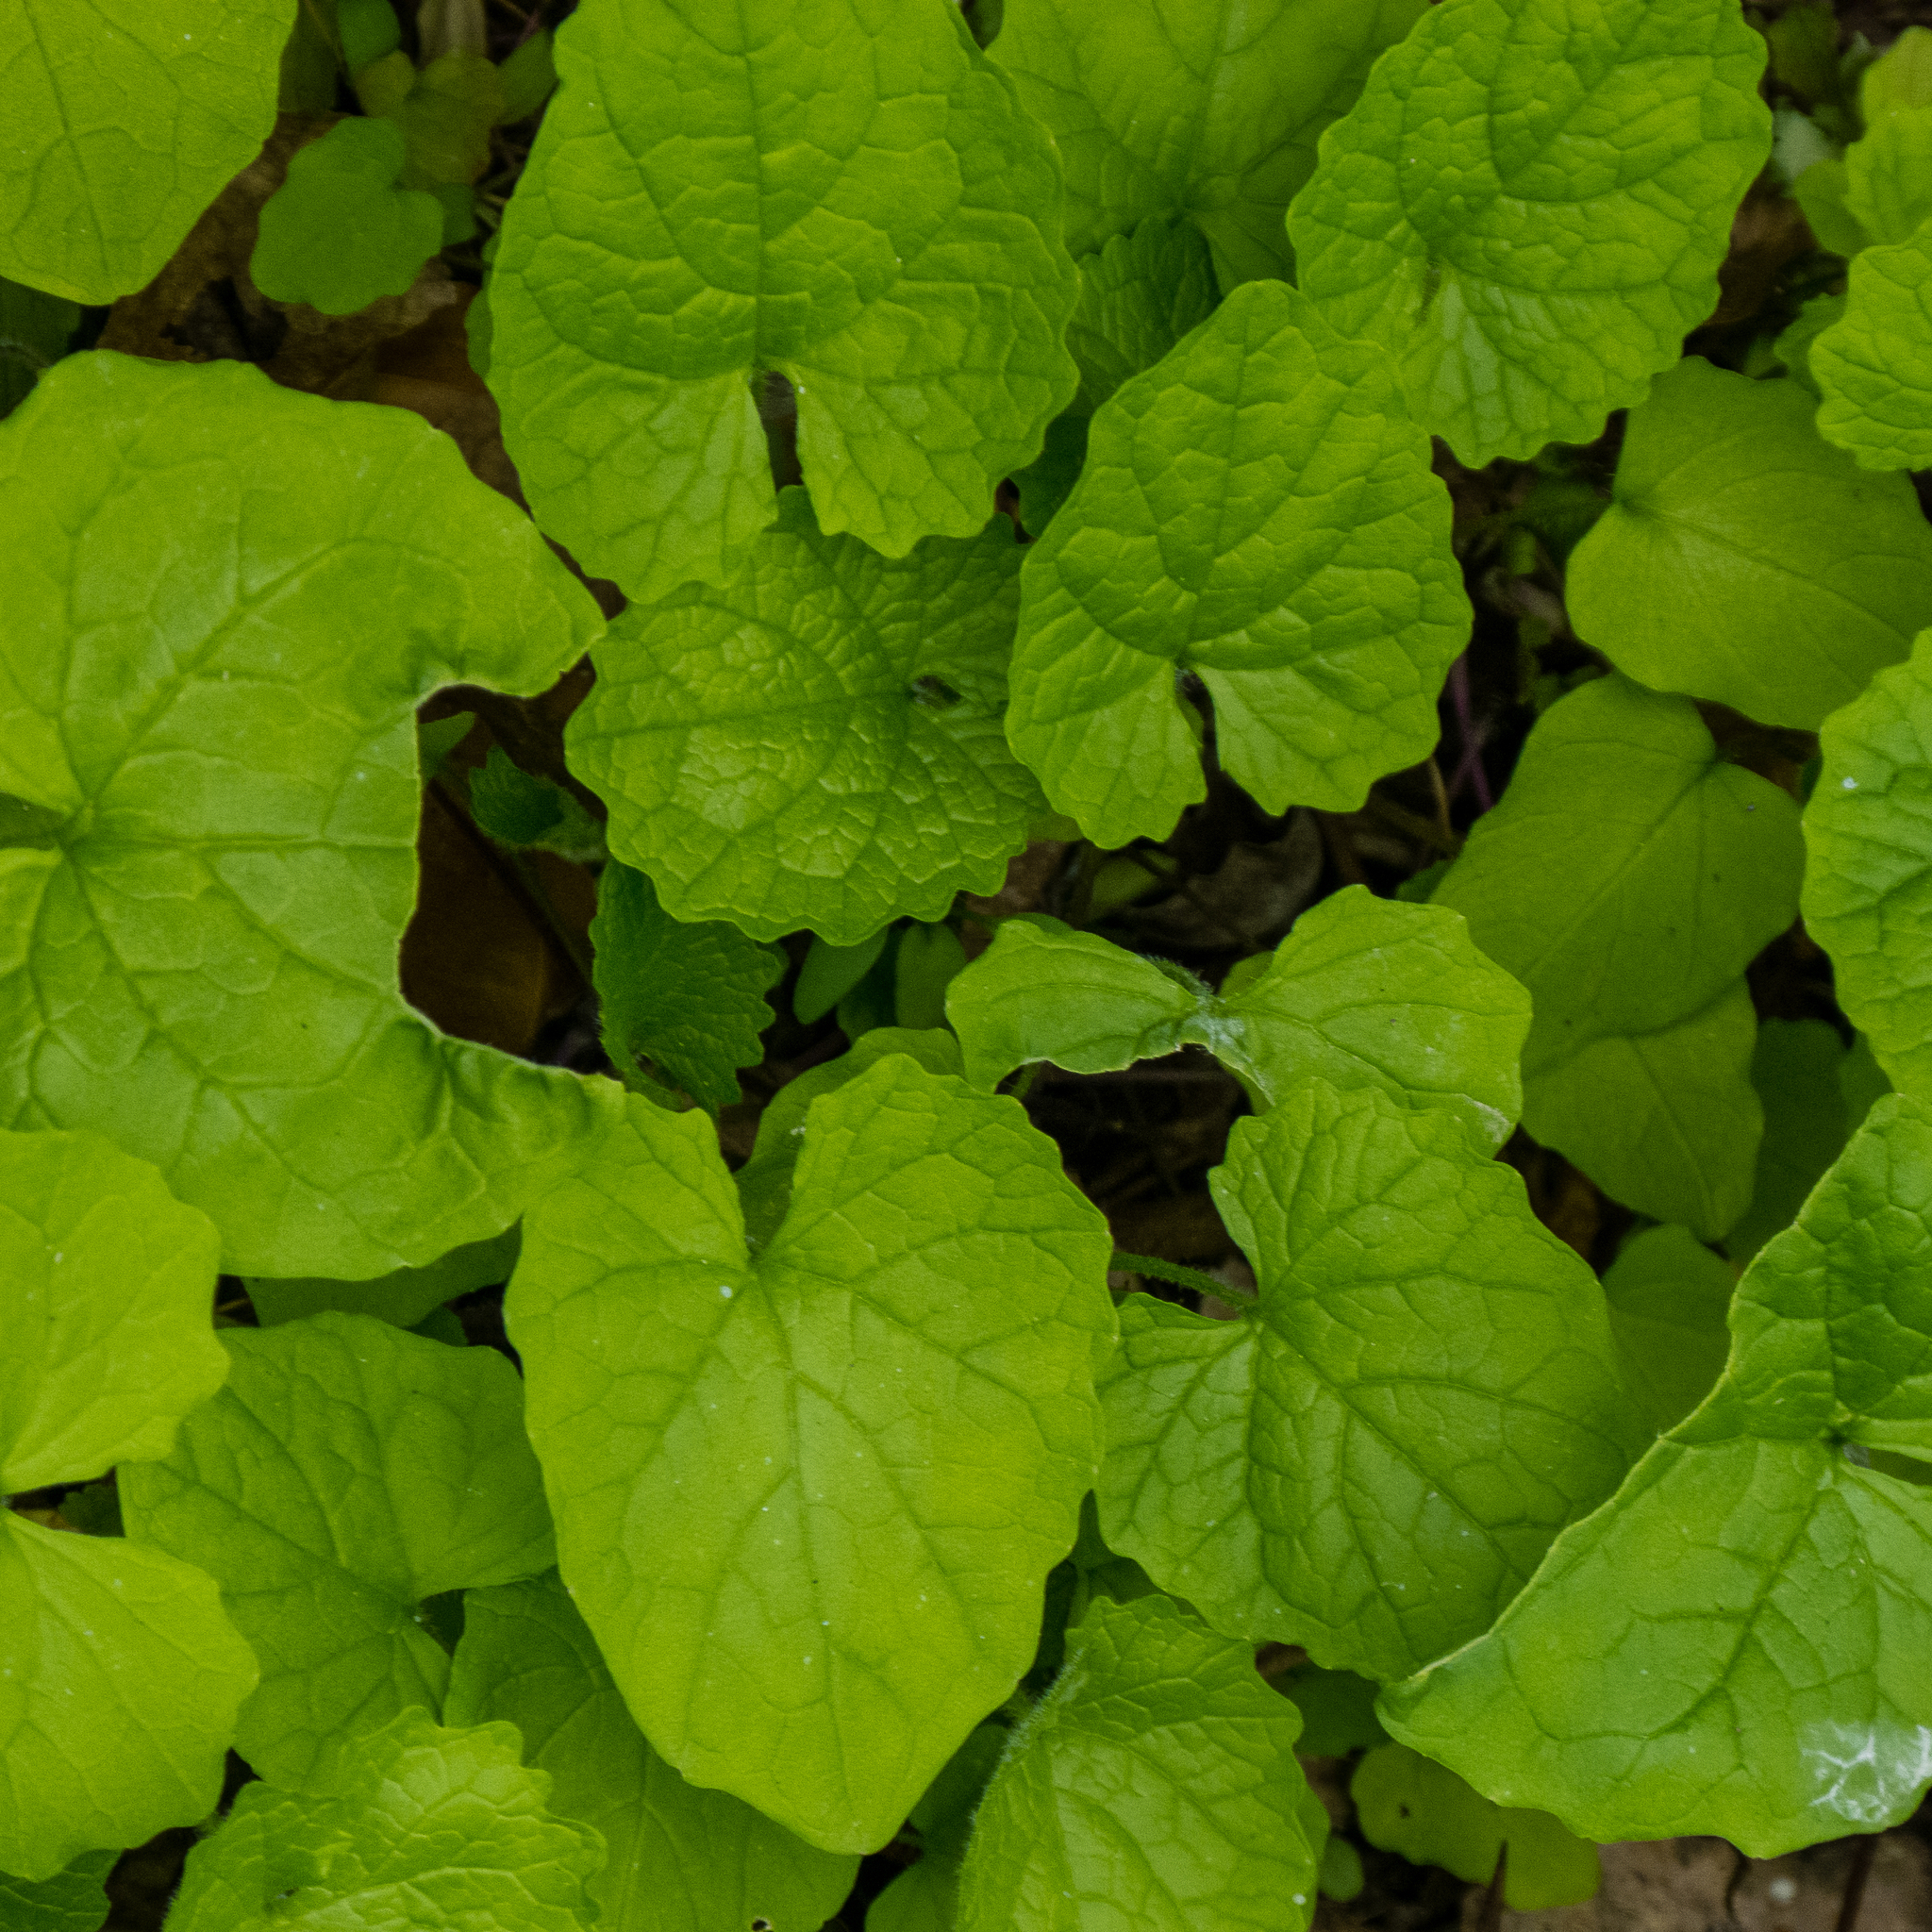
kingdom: Plantae
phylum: Tracheophyta
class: Magnoliopsida
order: Brassicales
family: Brassicaceae
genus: Alliaria
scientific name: Alliaria petiolata
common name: Garlic mustard
